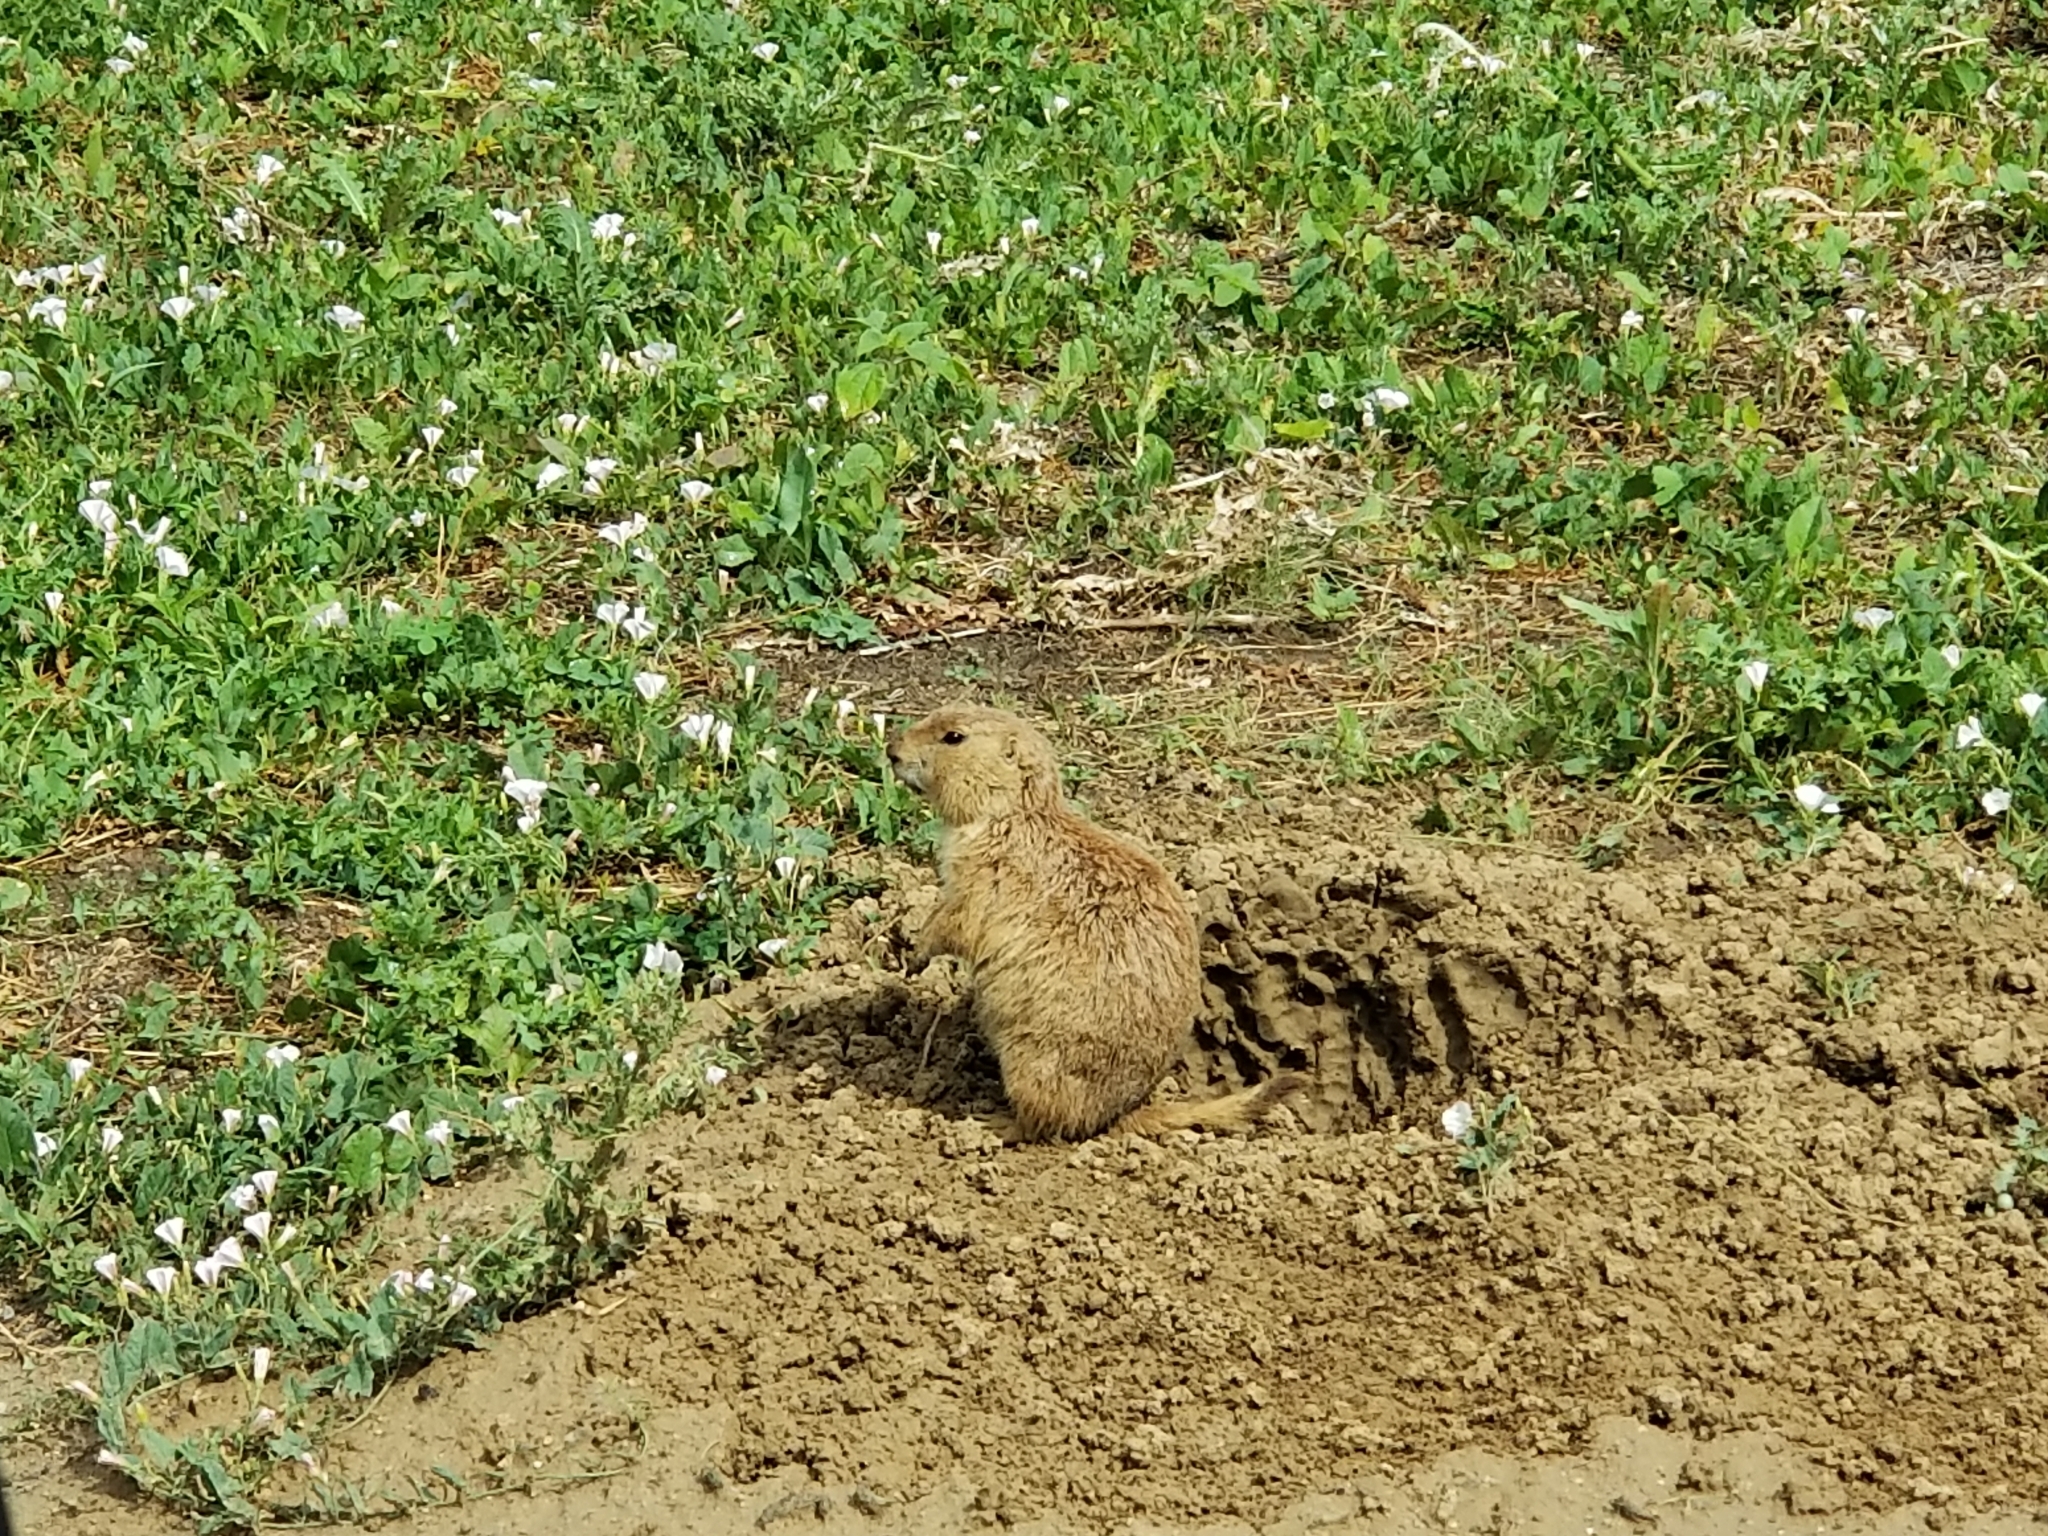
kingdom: Animalia
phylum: Chordata
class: Mammalia
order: Rodentia
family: Sciuridae
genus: Cynomys
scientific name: Cynomys ludovicianus
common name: Black-tailed prairie dog
